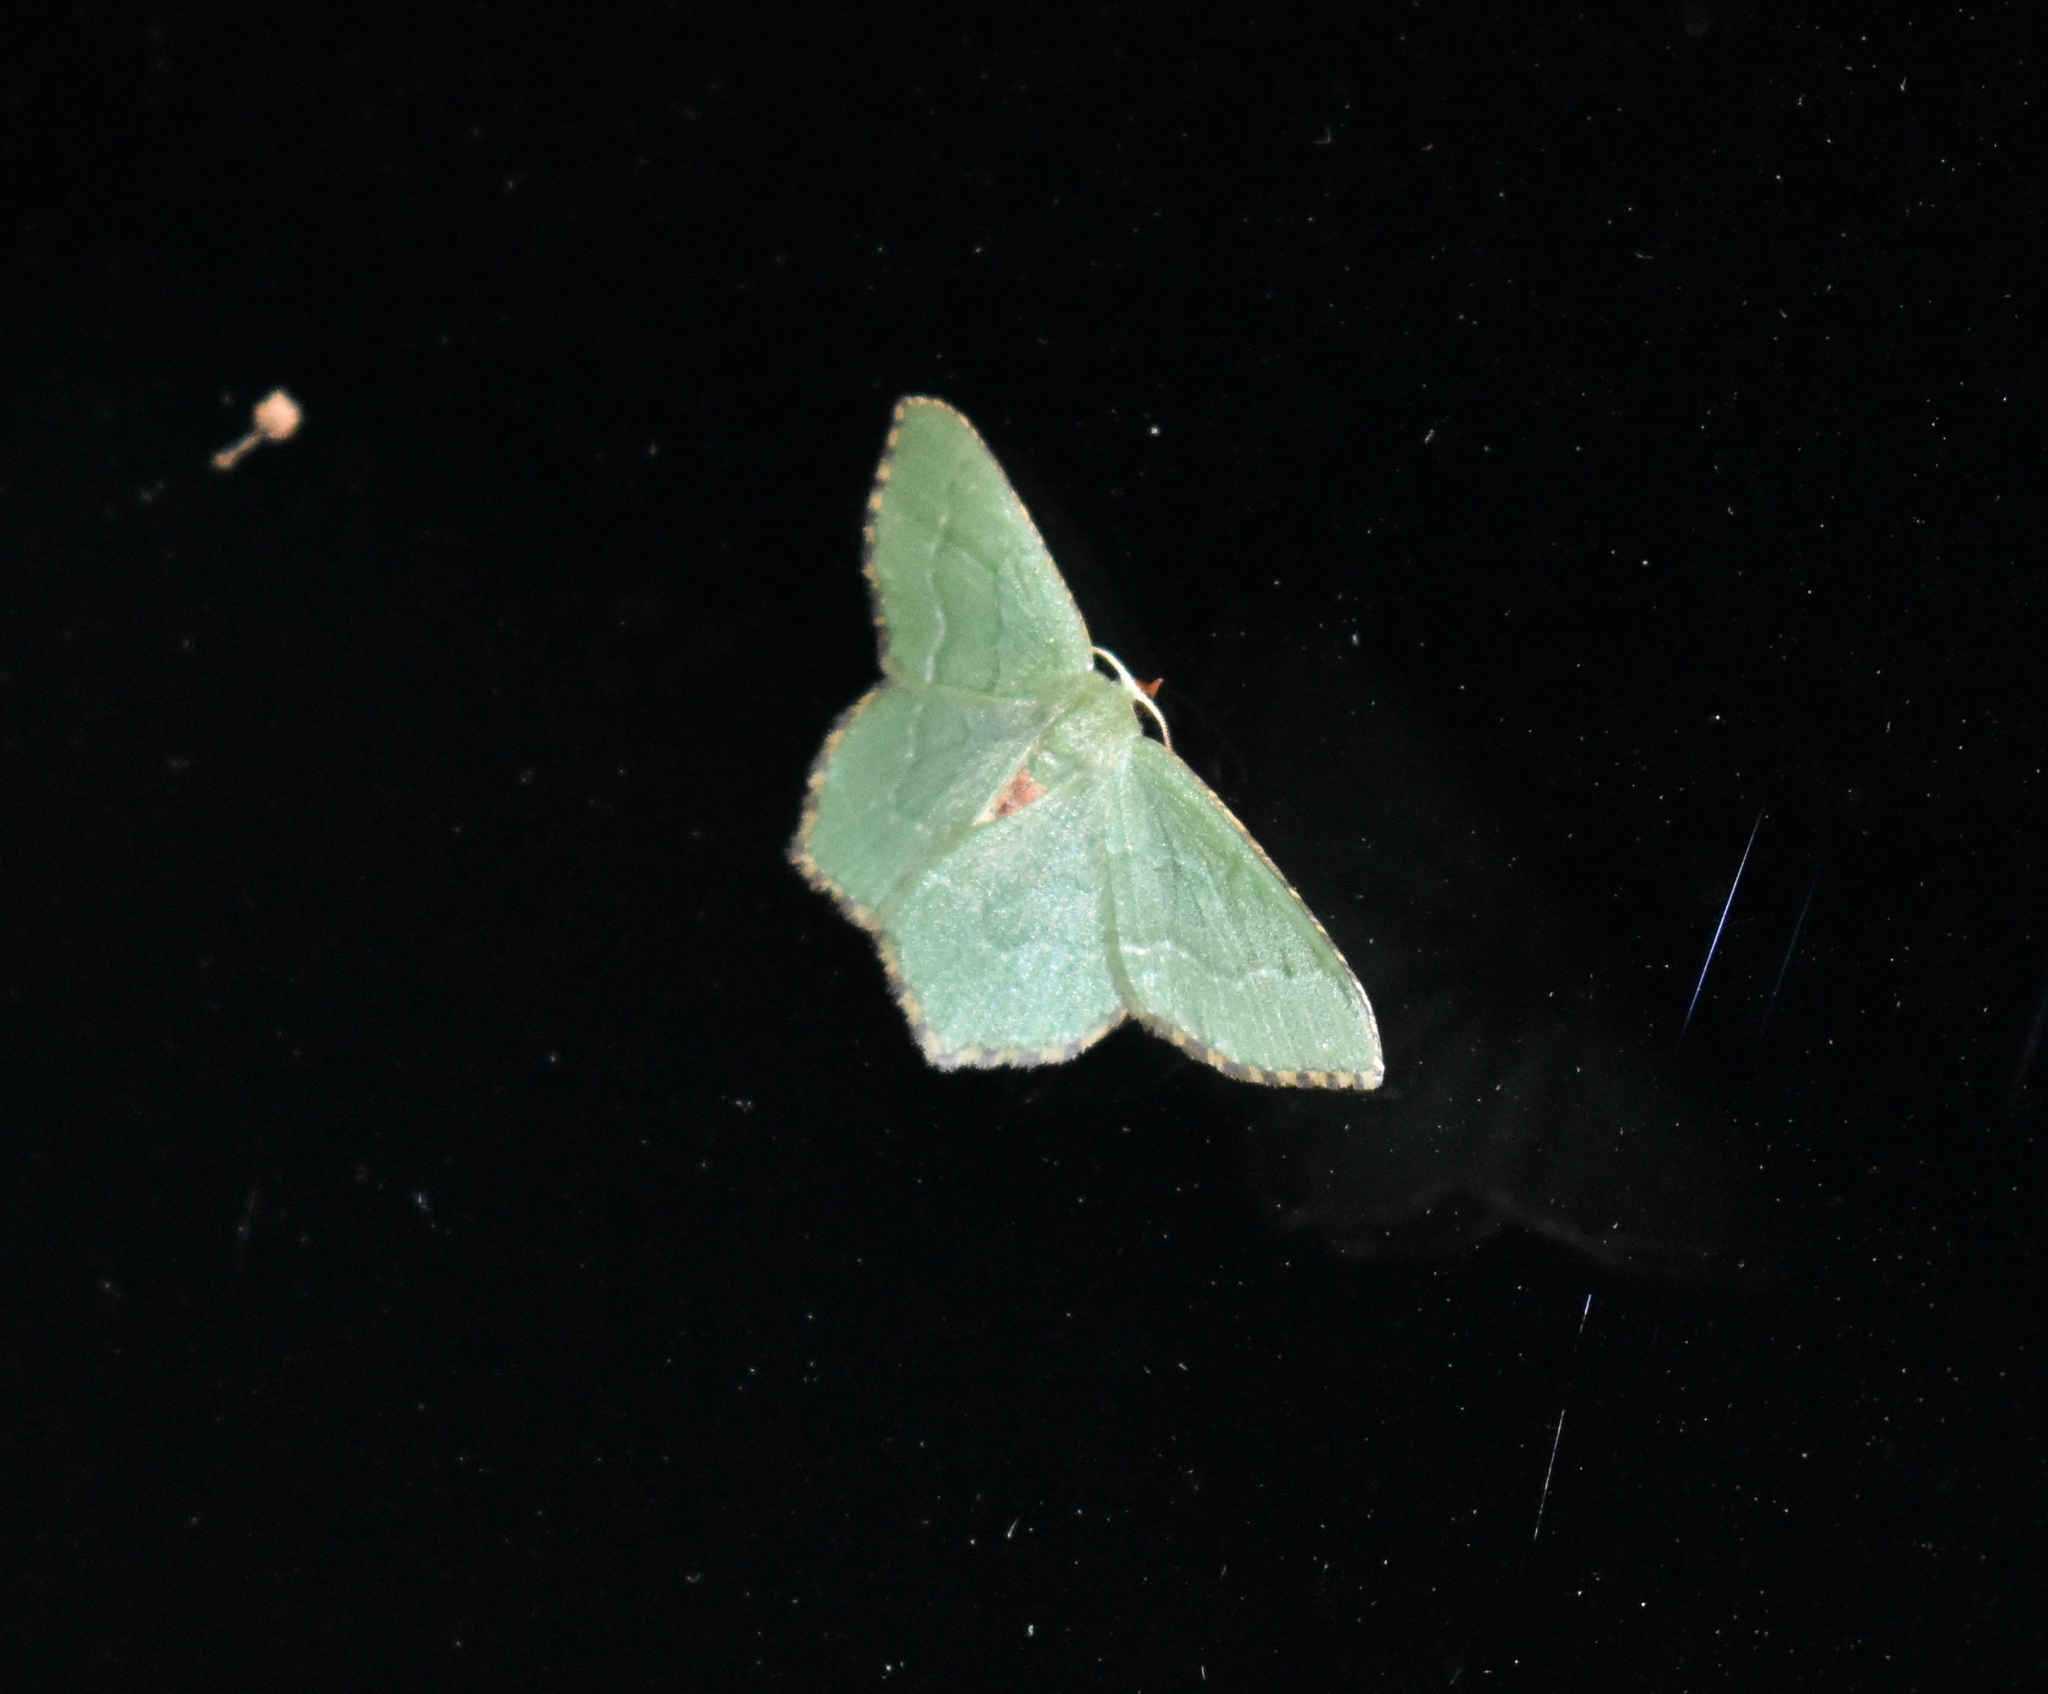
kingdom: Animalia
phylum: Arthropoda
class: Insecta
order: Lepidoptera
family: Geometridae
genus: Hemithea
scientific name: Hemithea aestivaria
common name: Common emerald
